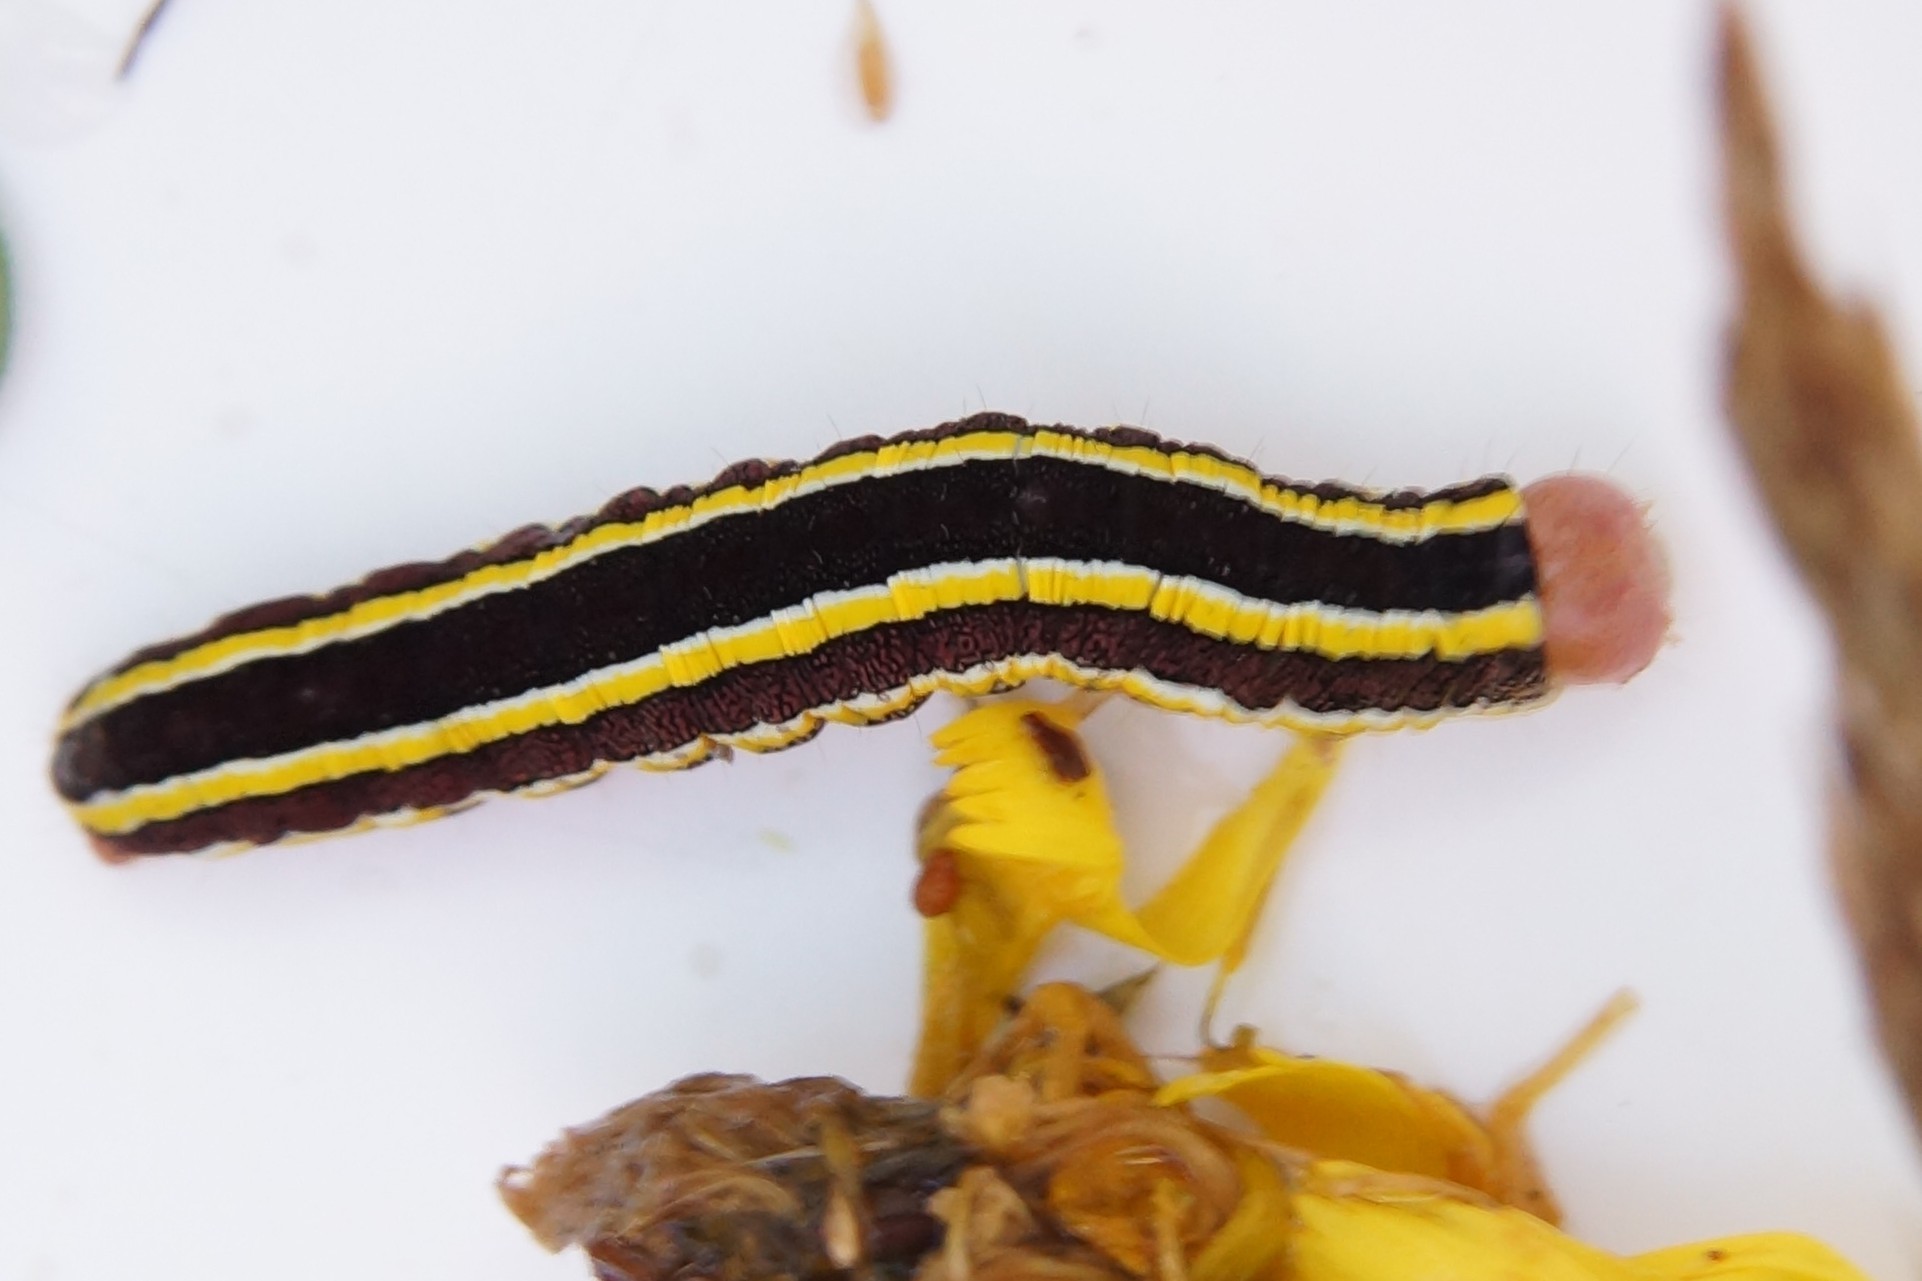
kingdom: Animalia
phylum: Arthropoda
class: Insecta
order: Lepidoptera
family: Noctuidae
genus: Ceramica
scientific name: Ceramica pisi
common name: Broom moth
